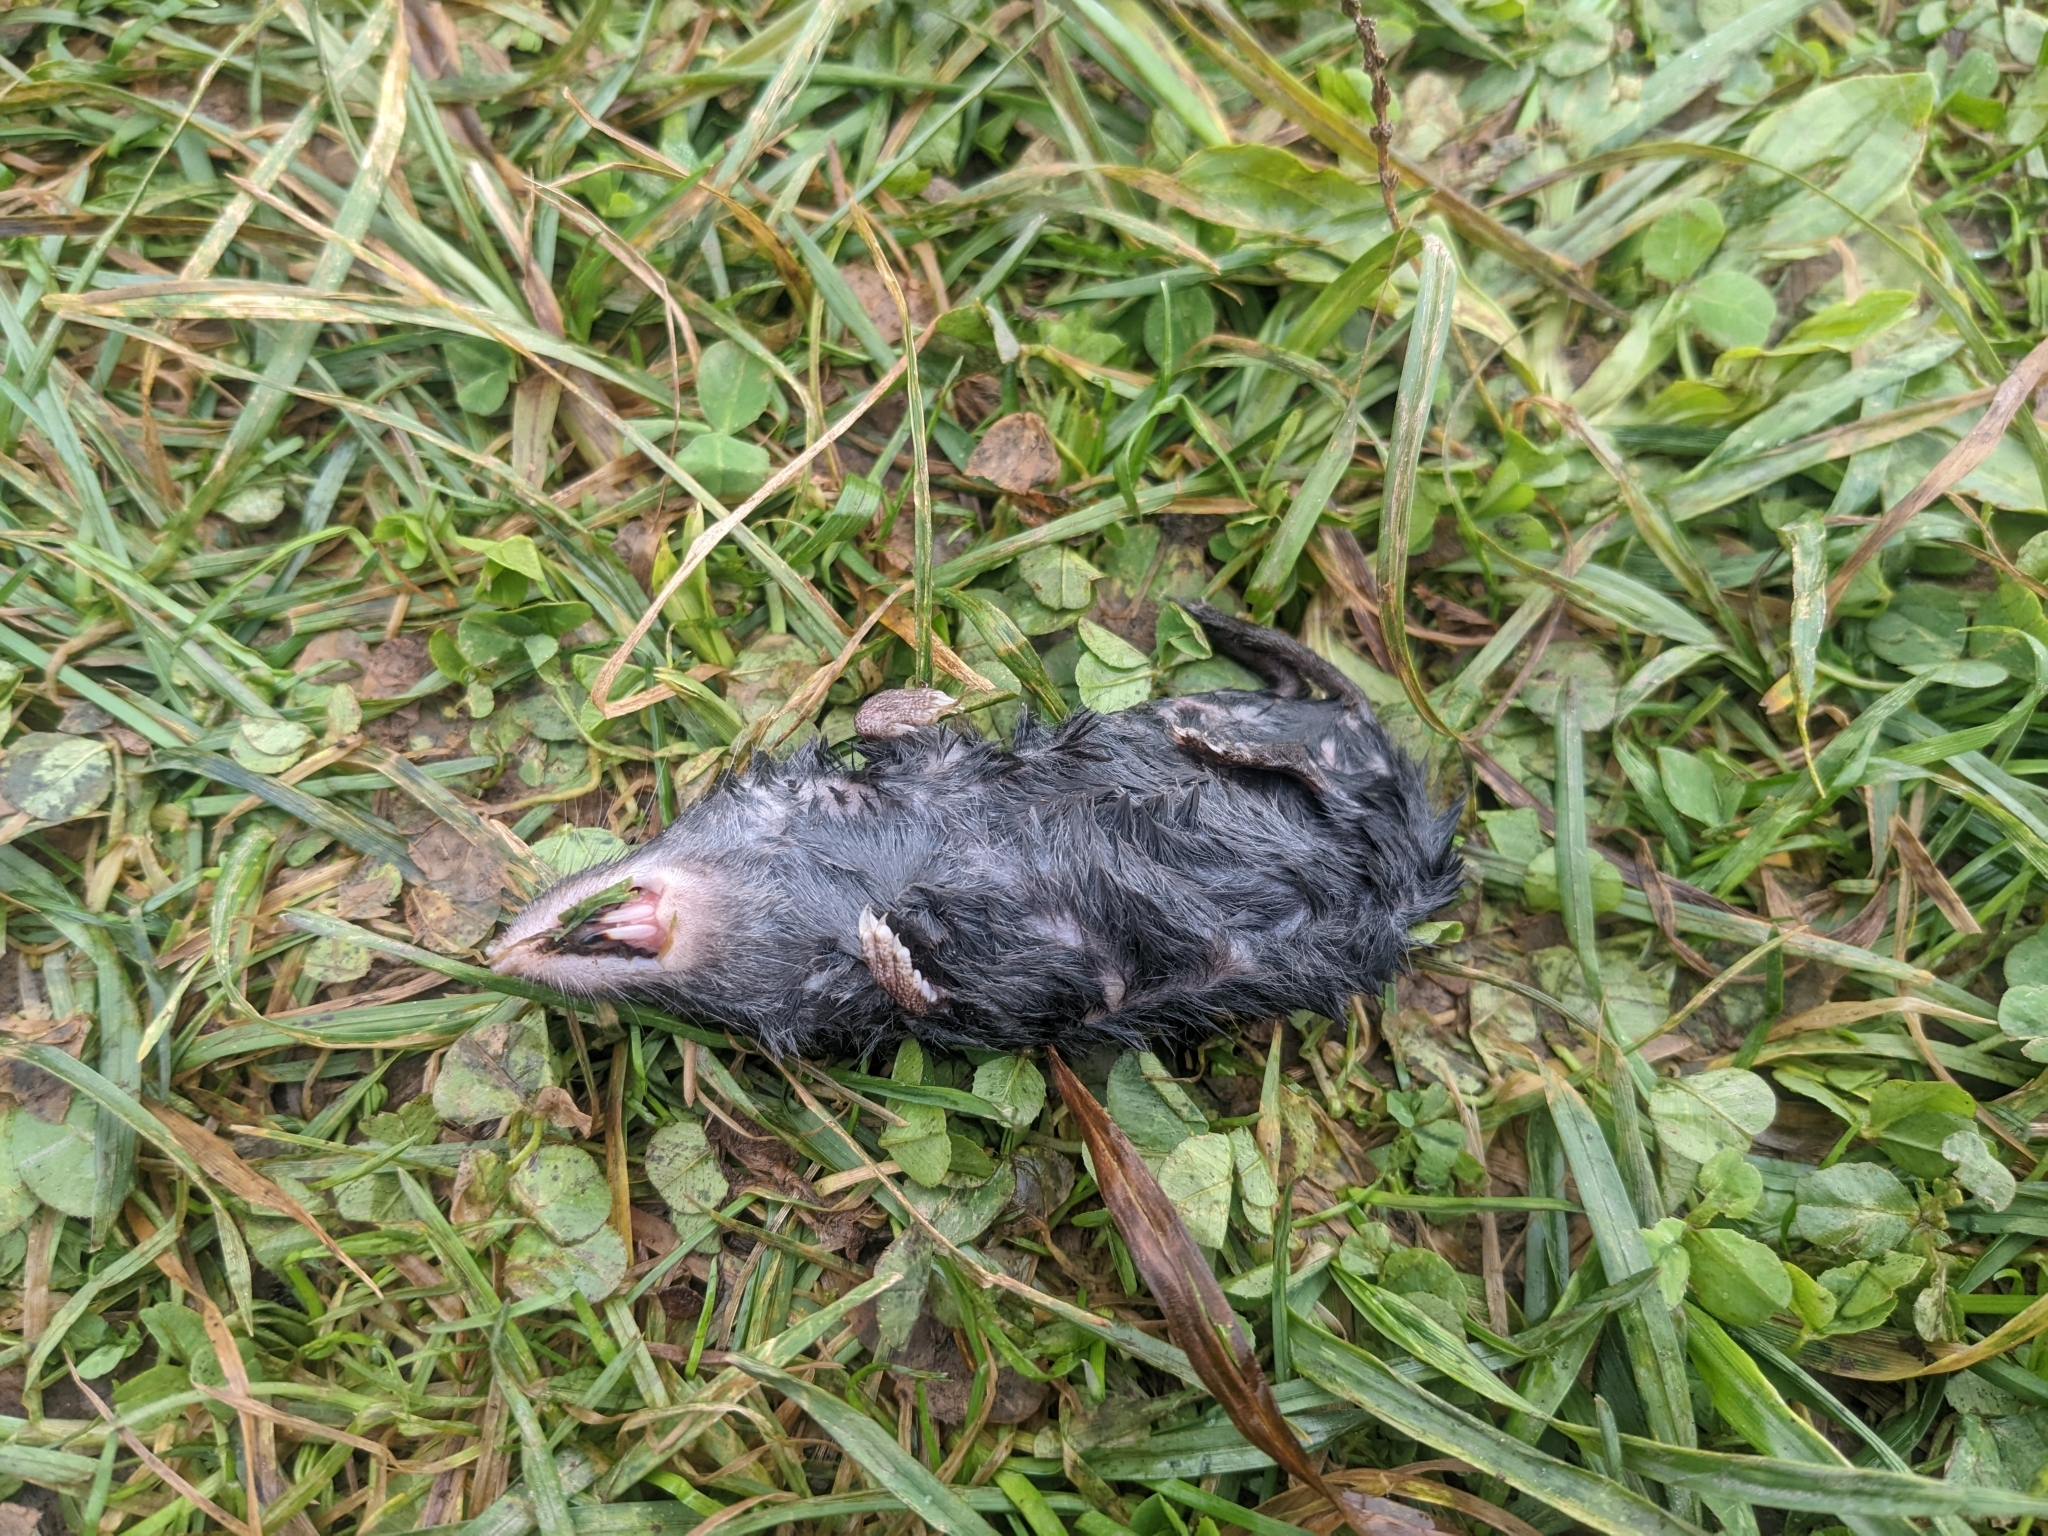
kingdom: Animalia
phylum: Chordata
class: Mammalia
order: Soricomorpha
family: Soricidae
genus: Blarina
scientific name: Blarina brevicauda
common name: Northern short-tailed shrew
